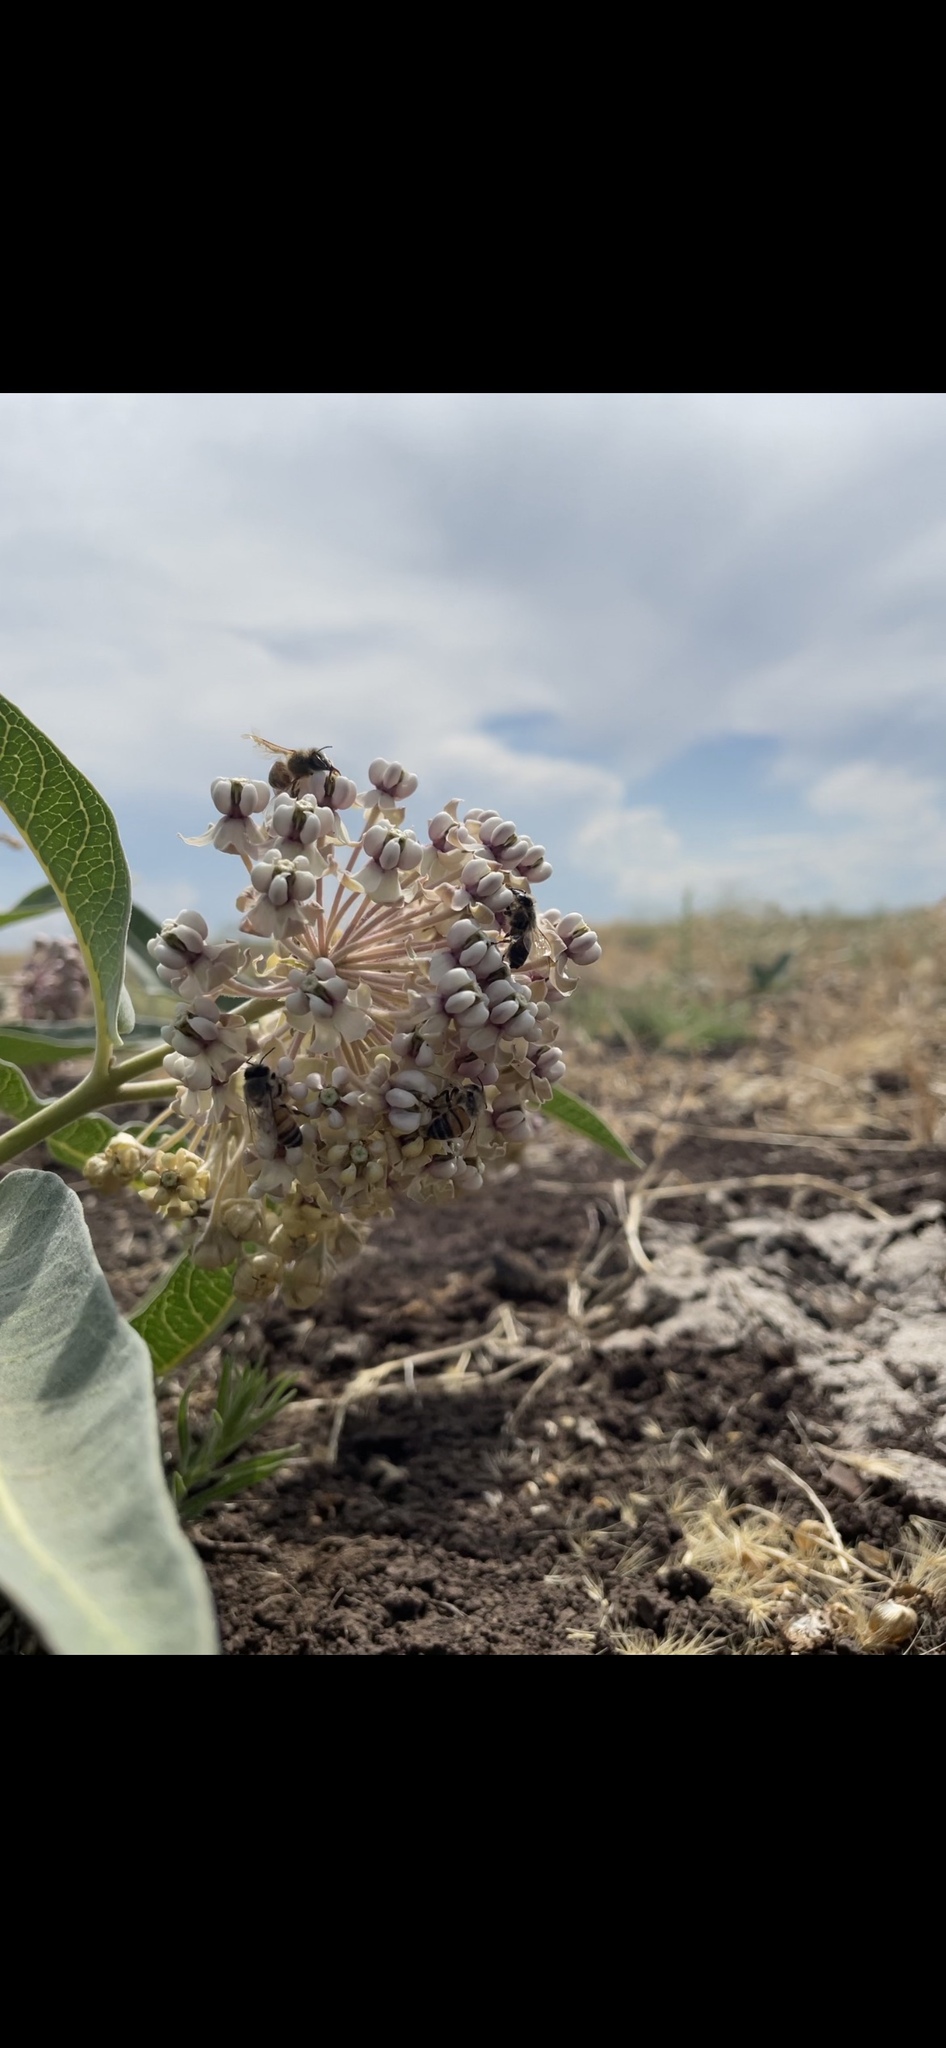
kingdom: Plantae
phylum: Tracheophyta
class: Magnoliopsida
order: Gentianales
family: Apocynaceae
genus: Asclepias
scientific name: Asclepias eriocarpa
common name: Indian milkweed
